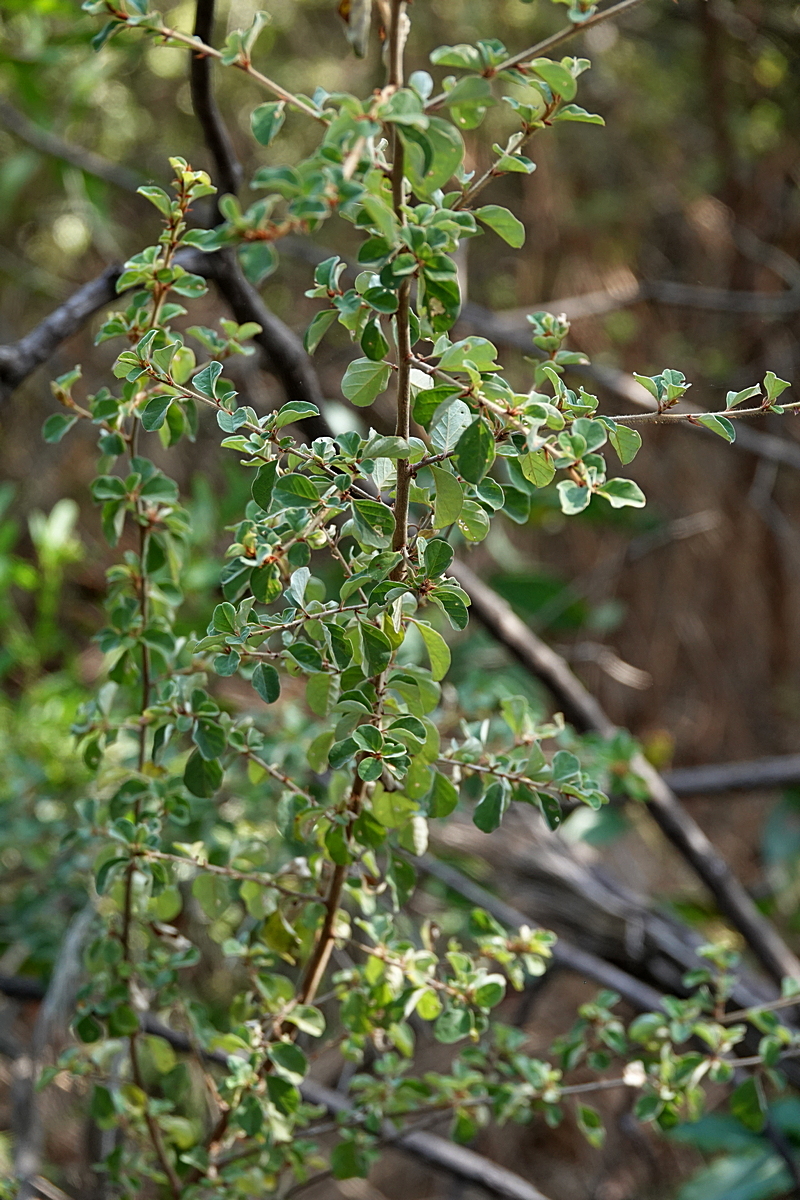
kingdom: Plantae
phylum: Tracheophyta
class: Magnoliopsida
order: Rosales
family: Rhamnaceae
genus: Pomaderris
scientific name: Pomaderris brogoensis
